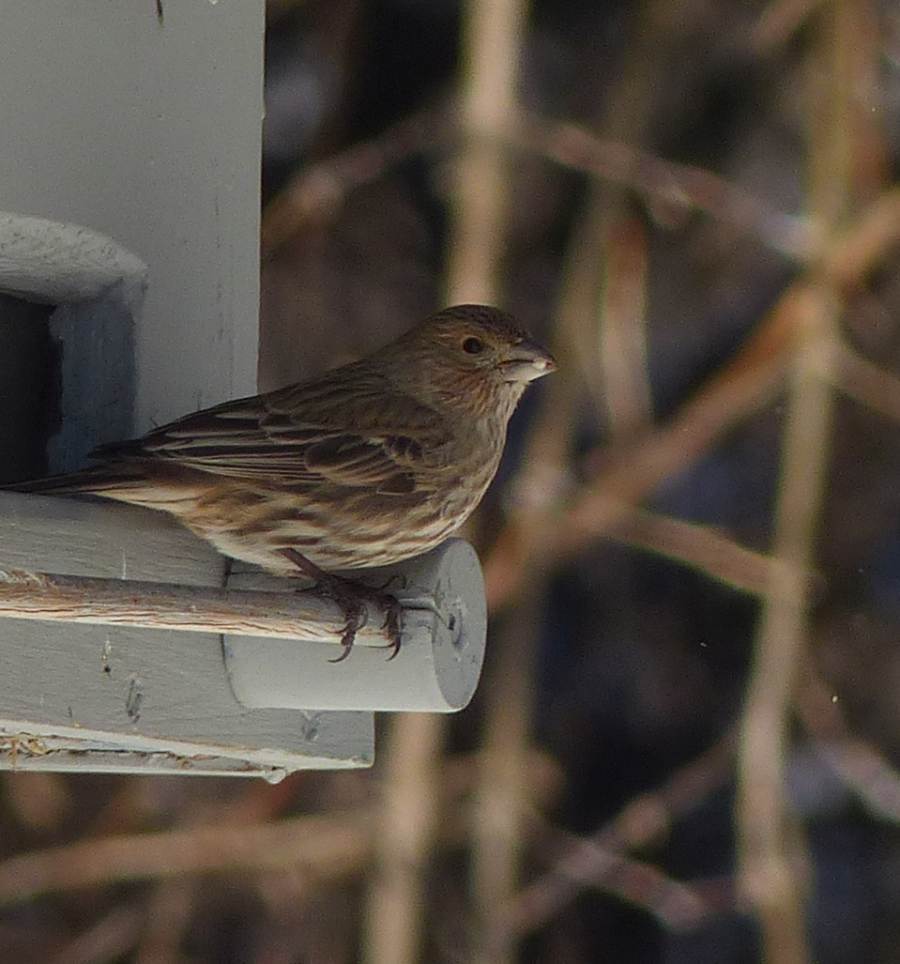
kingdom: Animalia
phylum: Chordata
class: Aves
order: Passeriformes
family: Fringillidae
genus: Haemorhous
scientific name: Haemorhous mexicanus
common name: House finch
